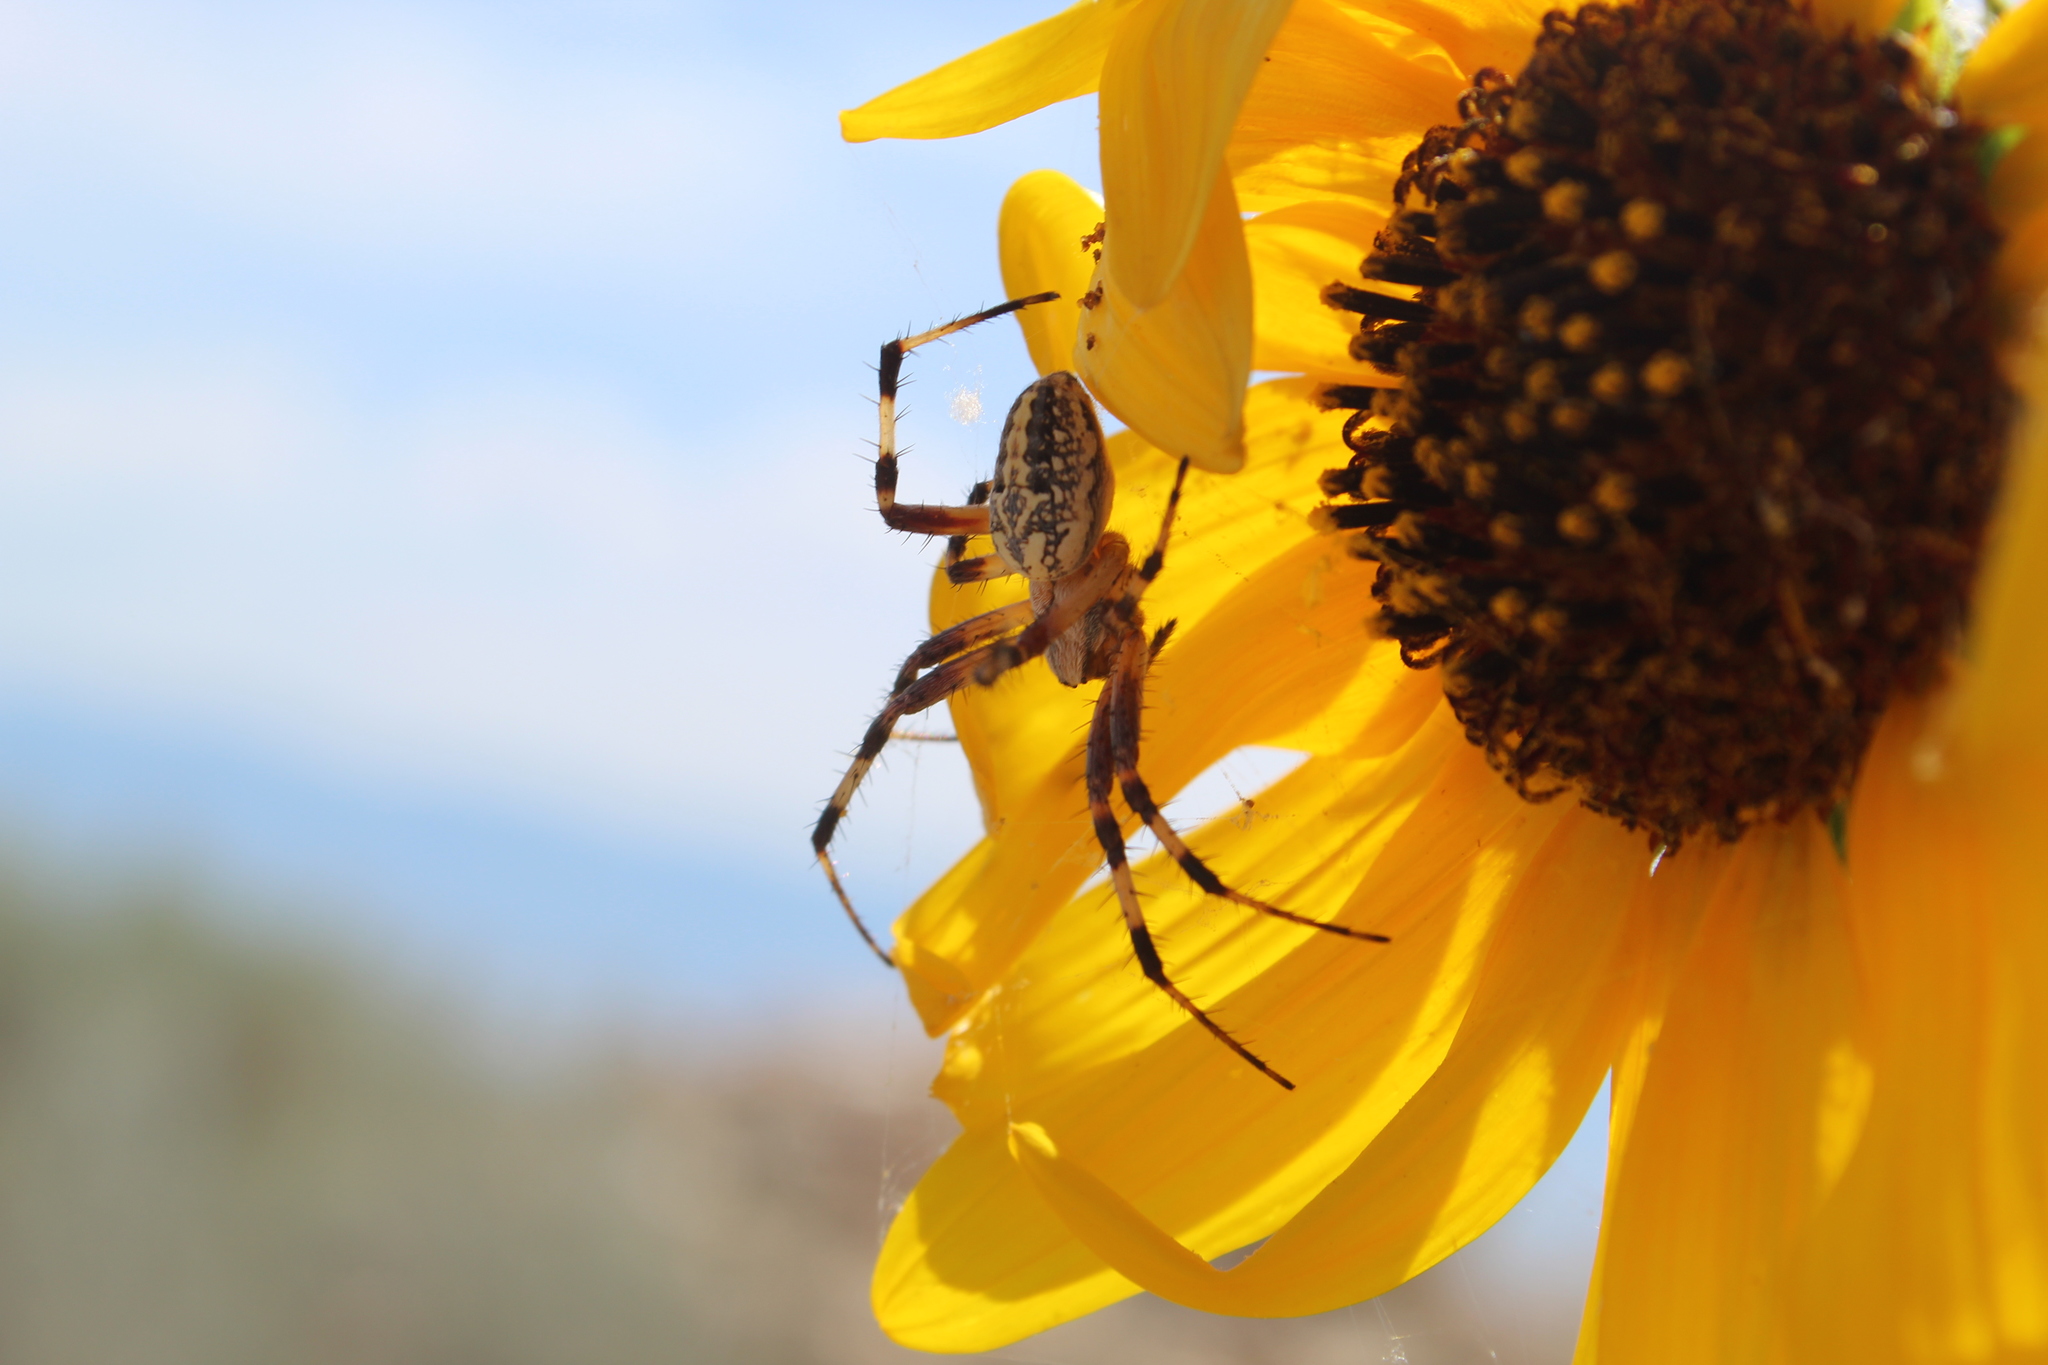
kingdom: Animalia
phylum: Arthropoda
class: Arachnida
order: Araneae
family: Araneidae
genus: Neoscona
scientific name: Neoscona oaxacensis
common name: Orb weavers
